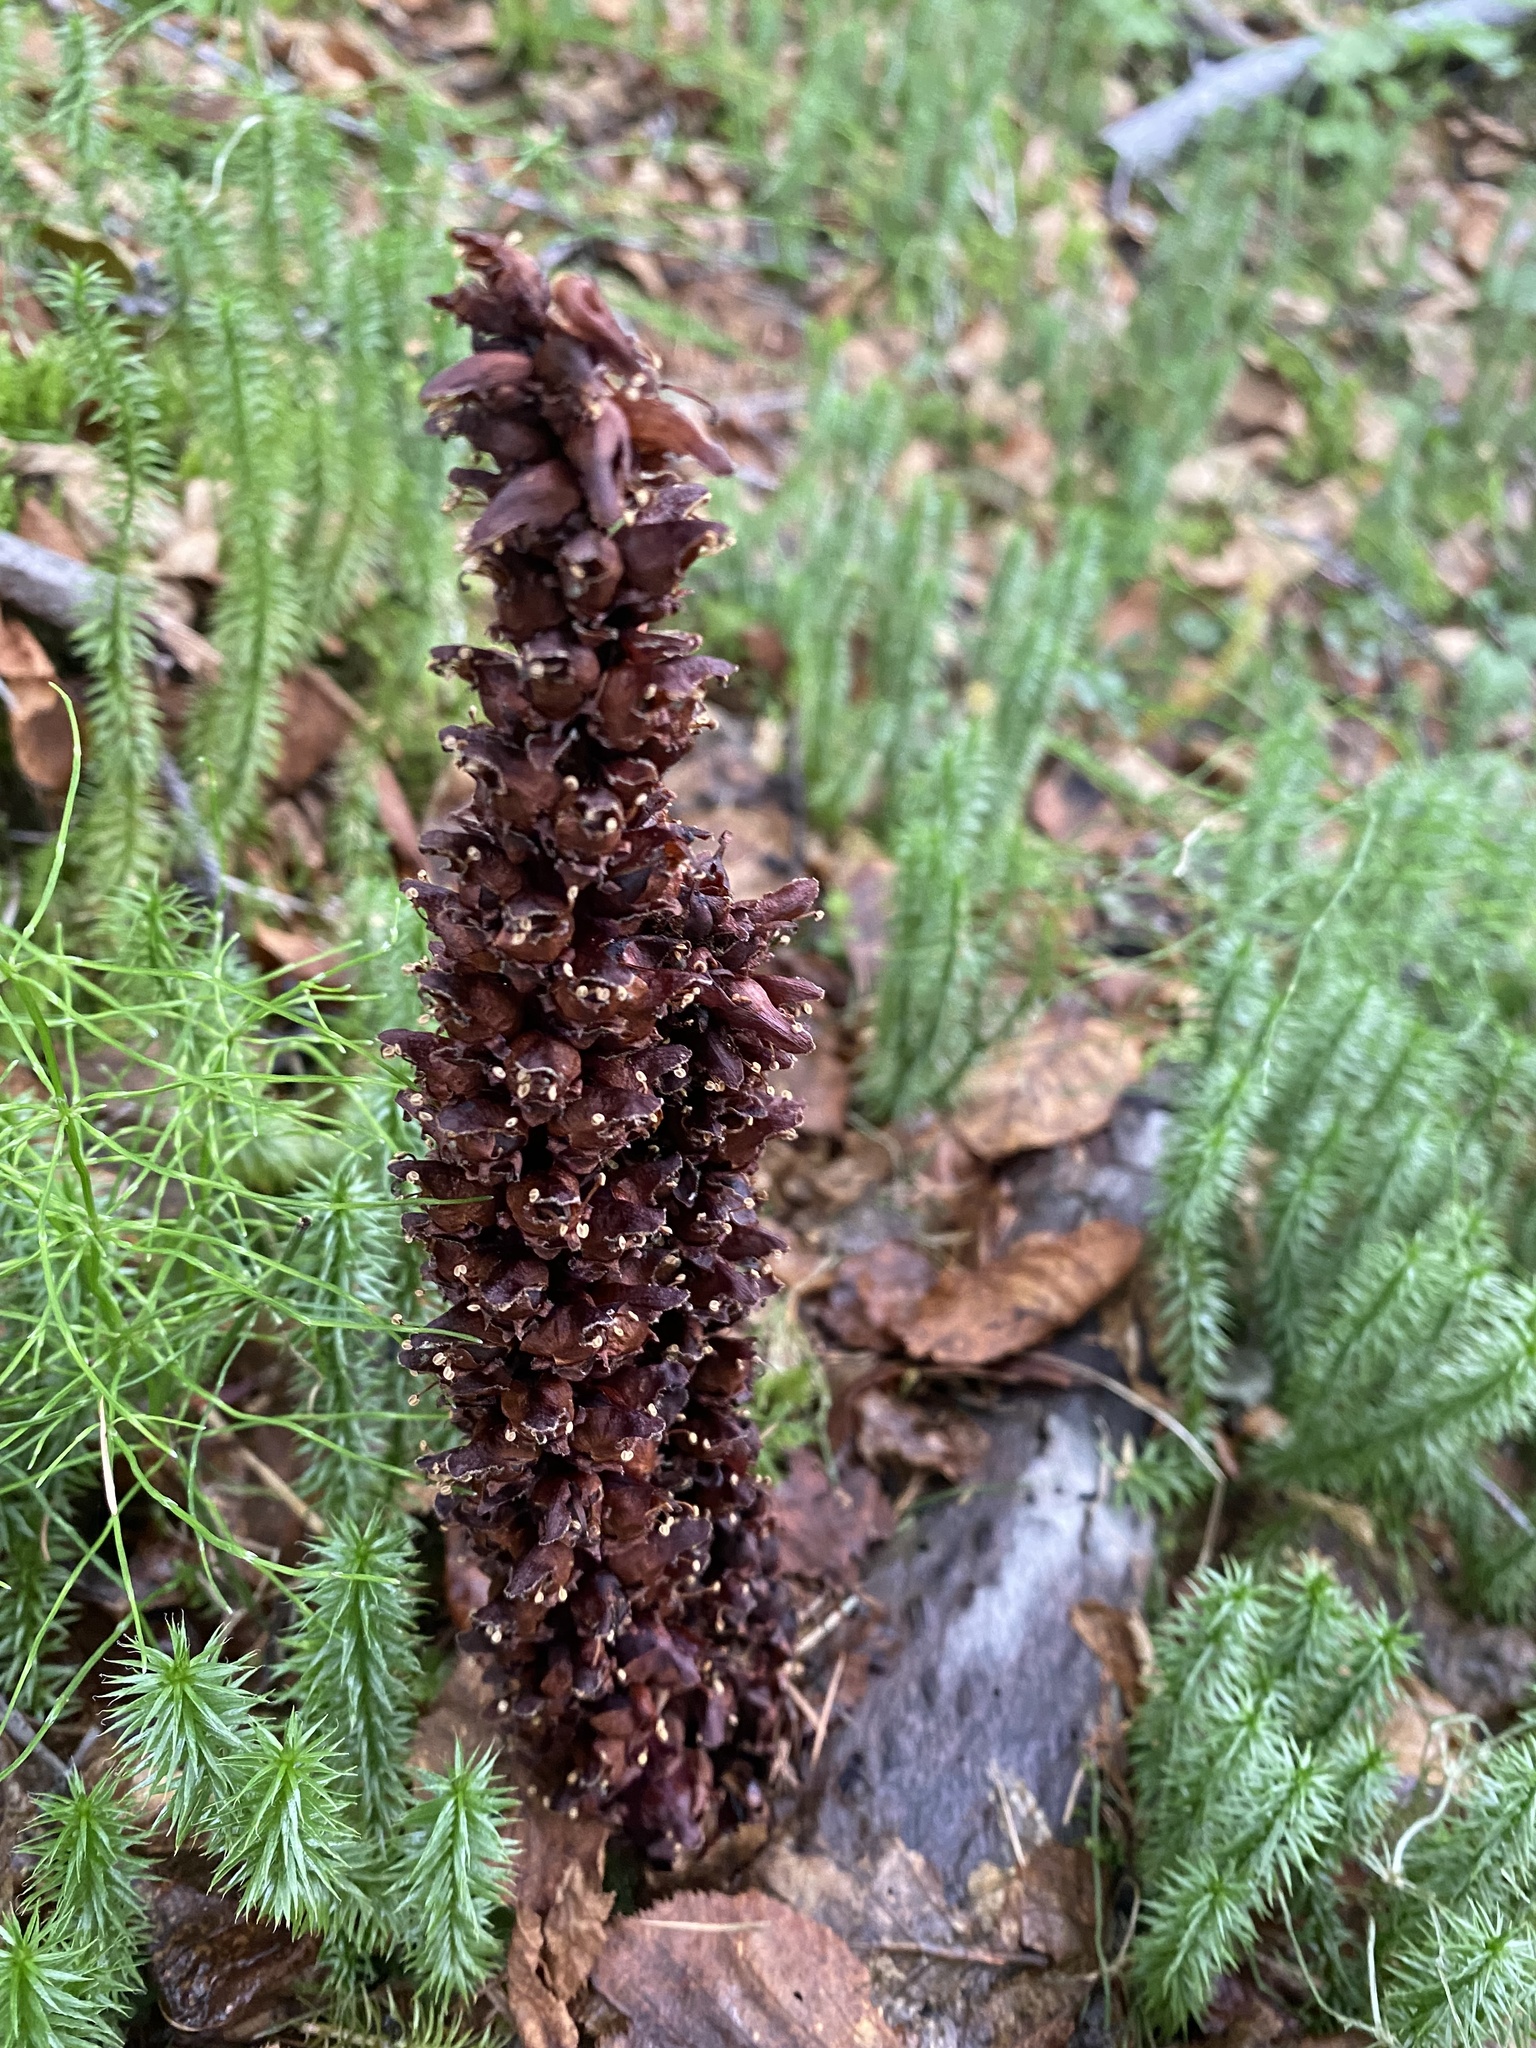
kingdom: Plantae
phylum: Tracheophyta
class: Magnoliopsida
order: Lamiales
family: Orobanchaceae
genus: Boschniakia
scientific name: Boschniakia rossica
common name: Poque
